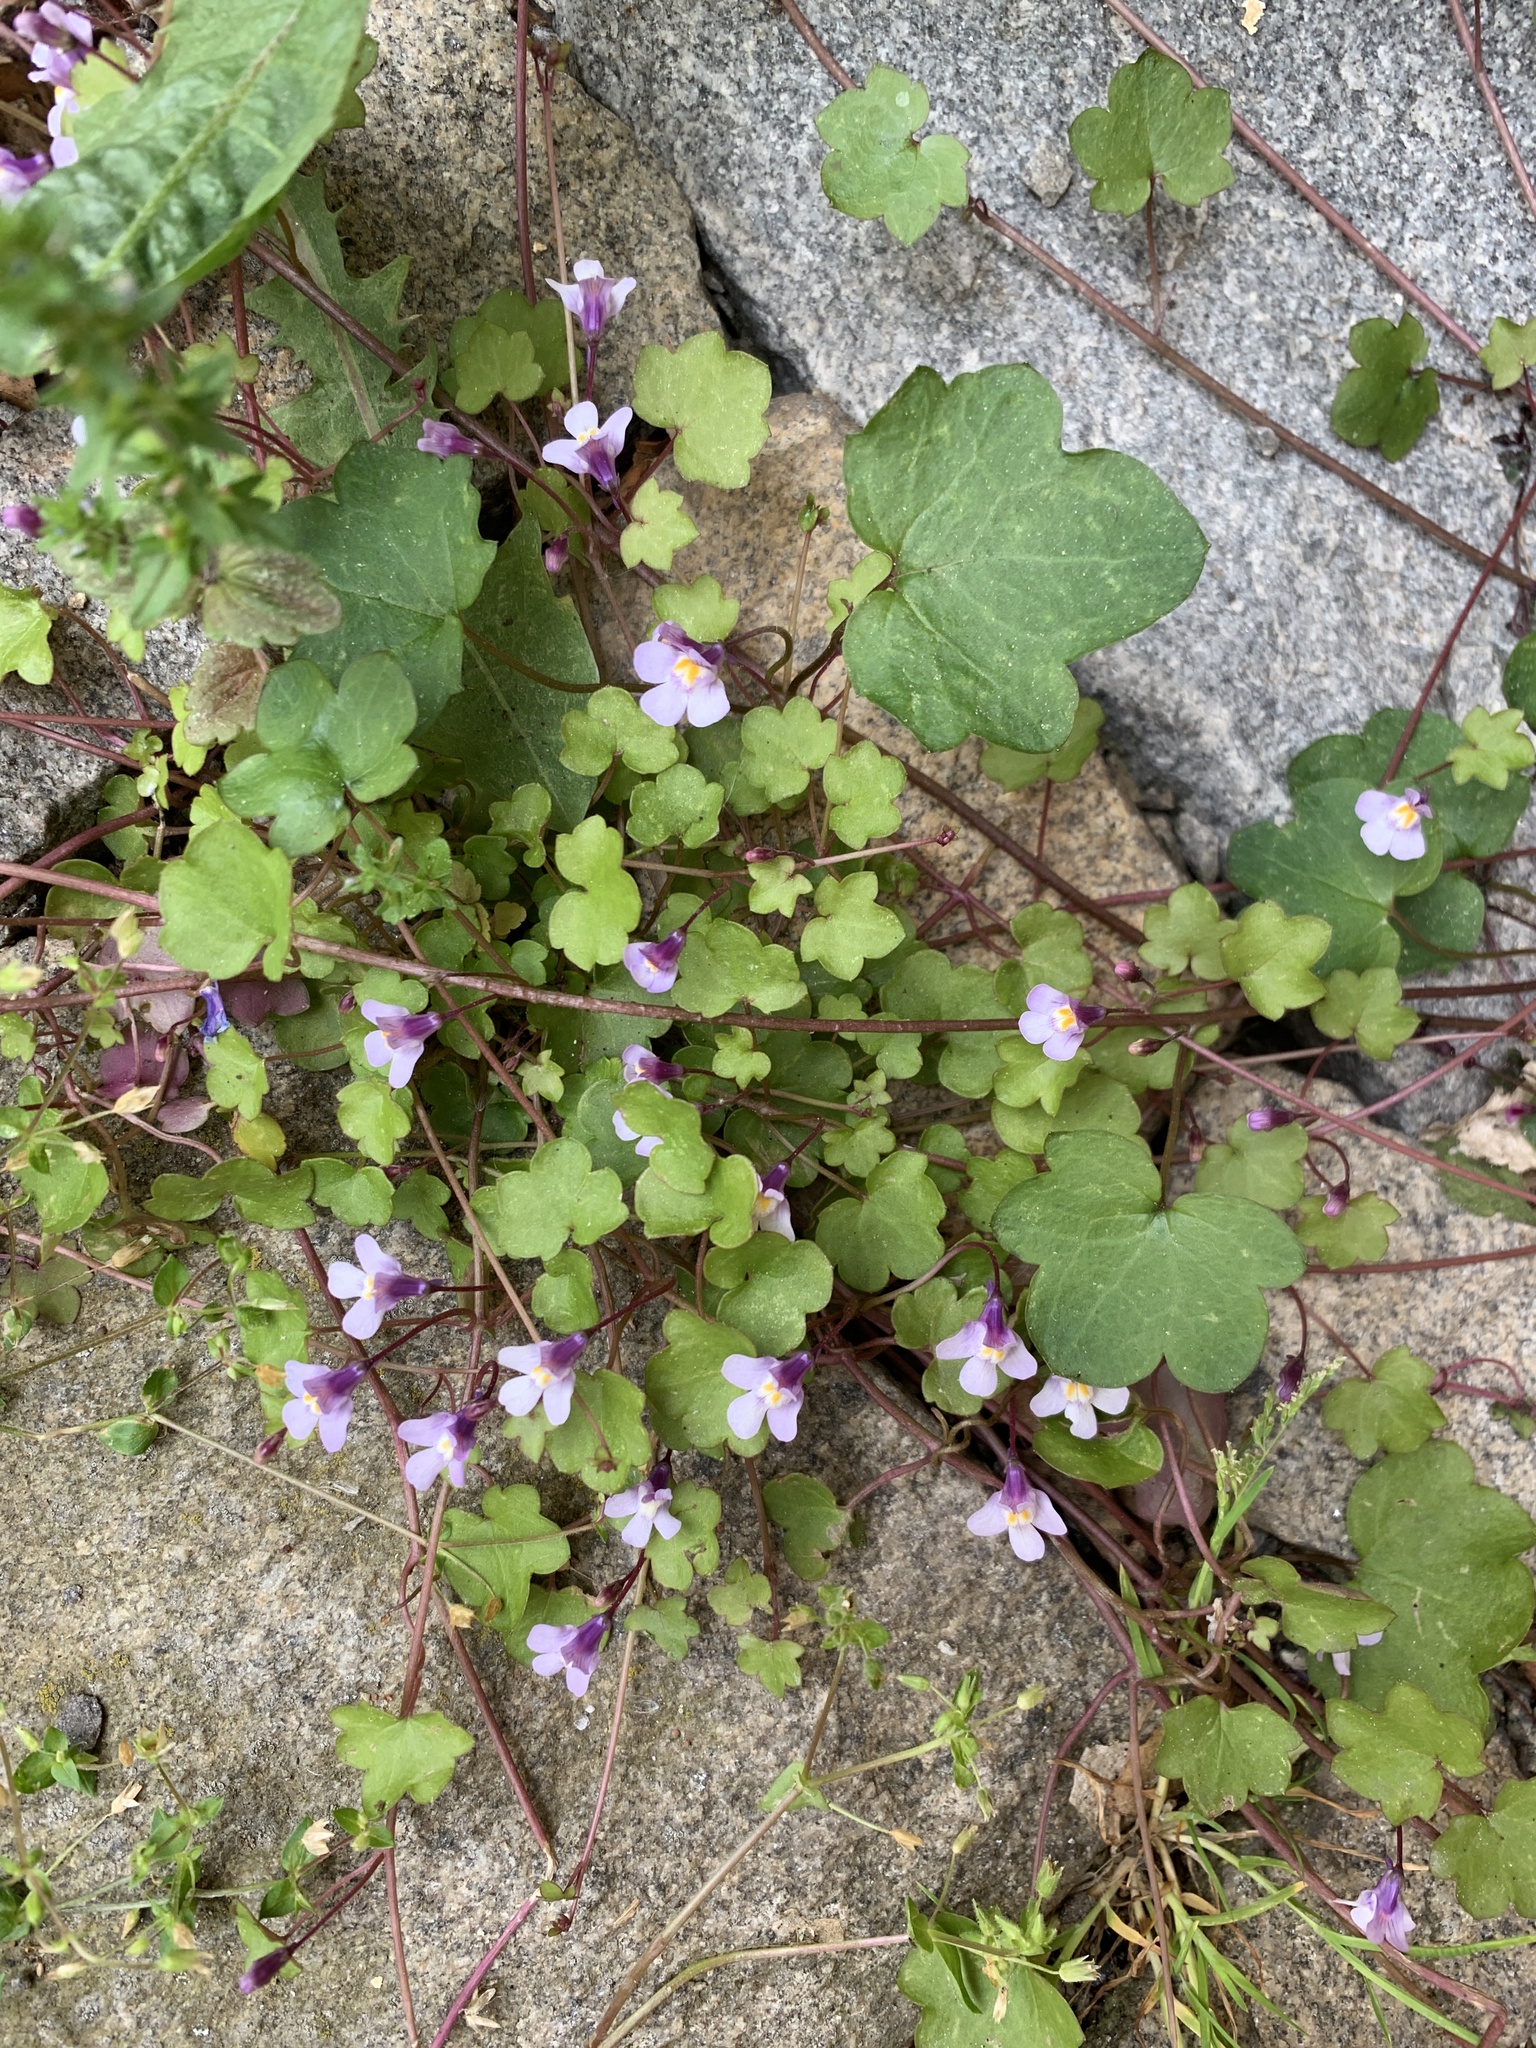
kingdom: Plantae
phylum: Tracheophyta
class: Magnoliopsida
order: Lamiales
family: Plantaginaceae
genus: Cymbalaria
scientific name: Cymbalaria muralis
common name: Ivy-leaved toadflax
